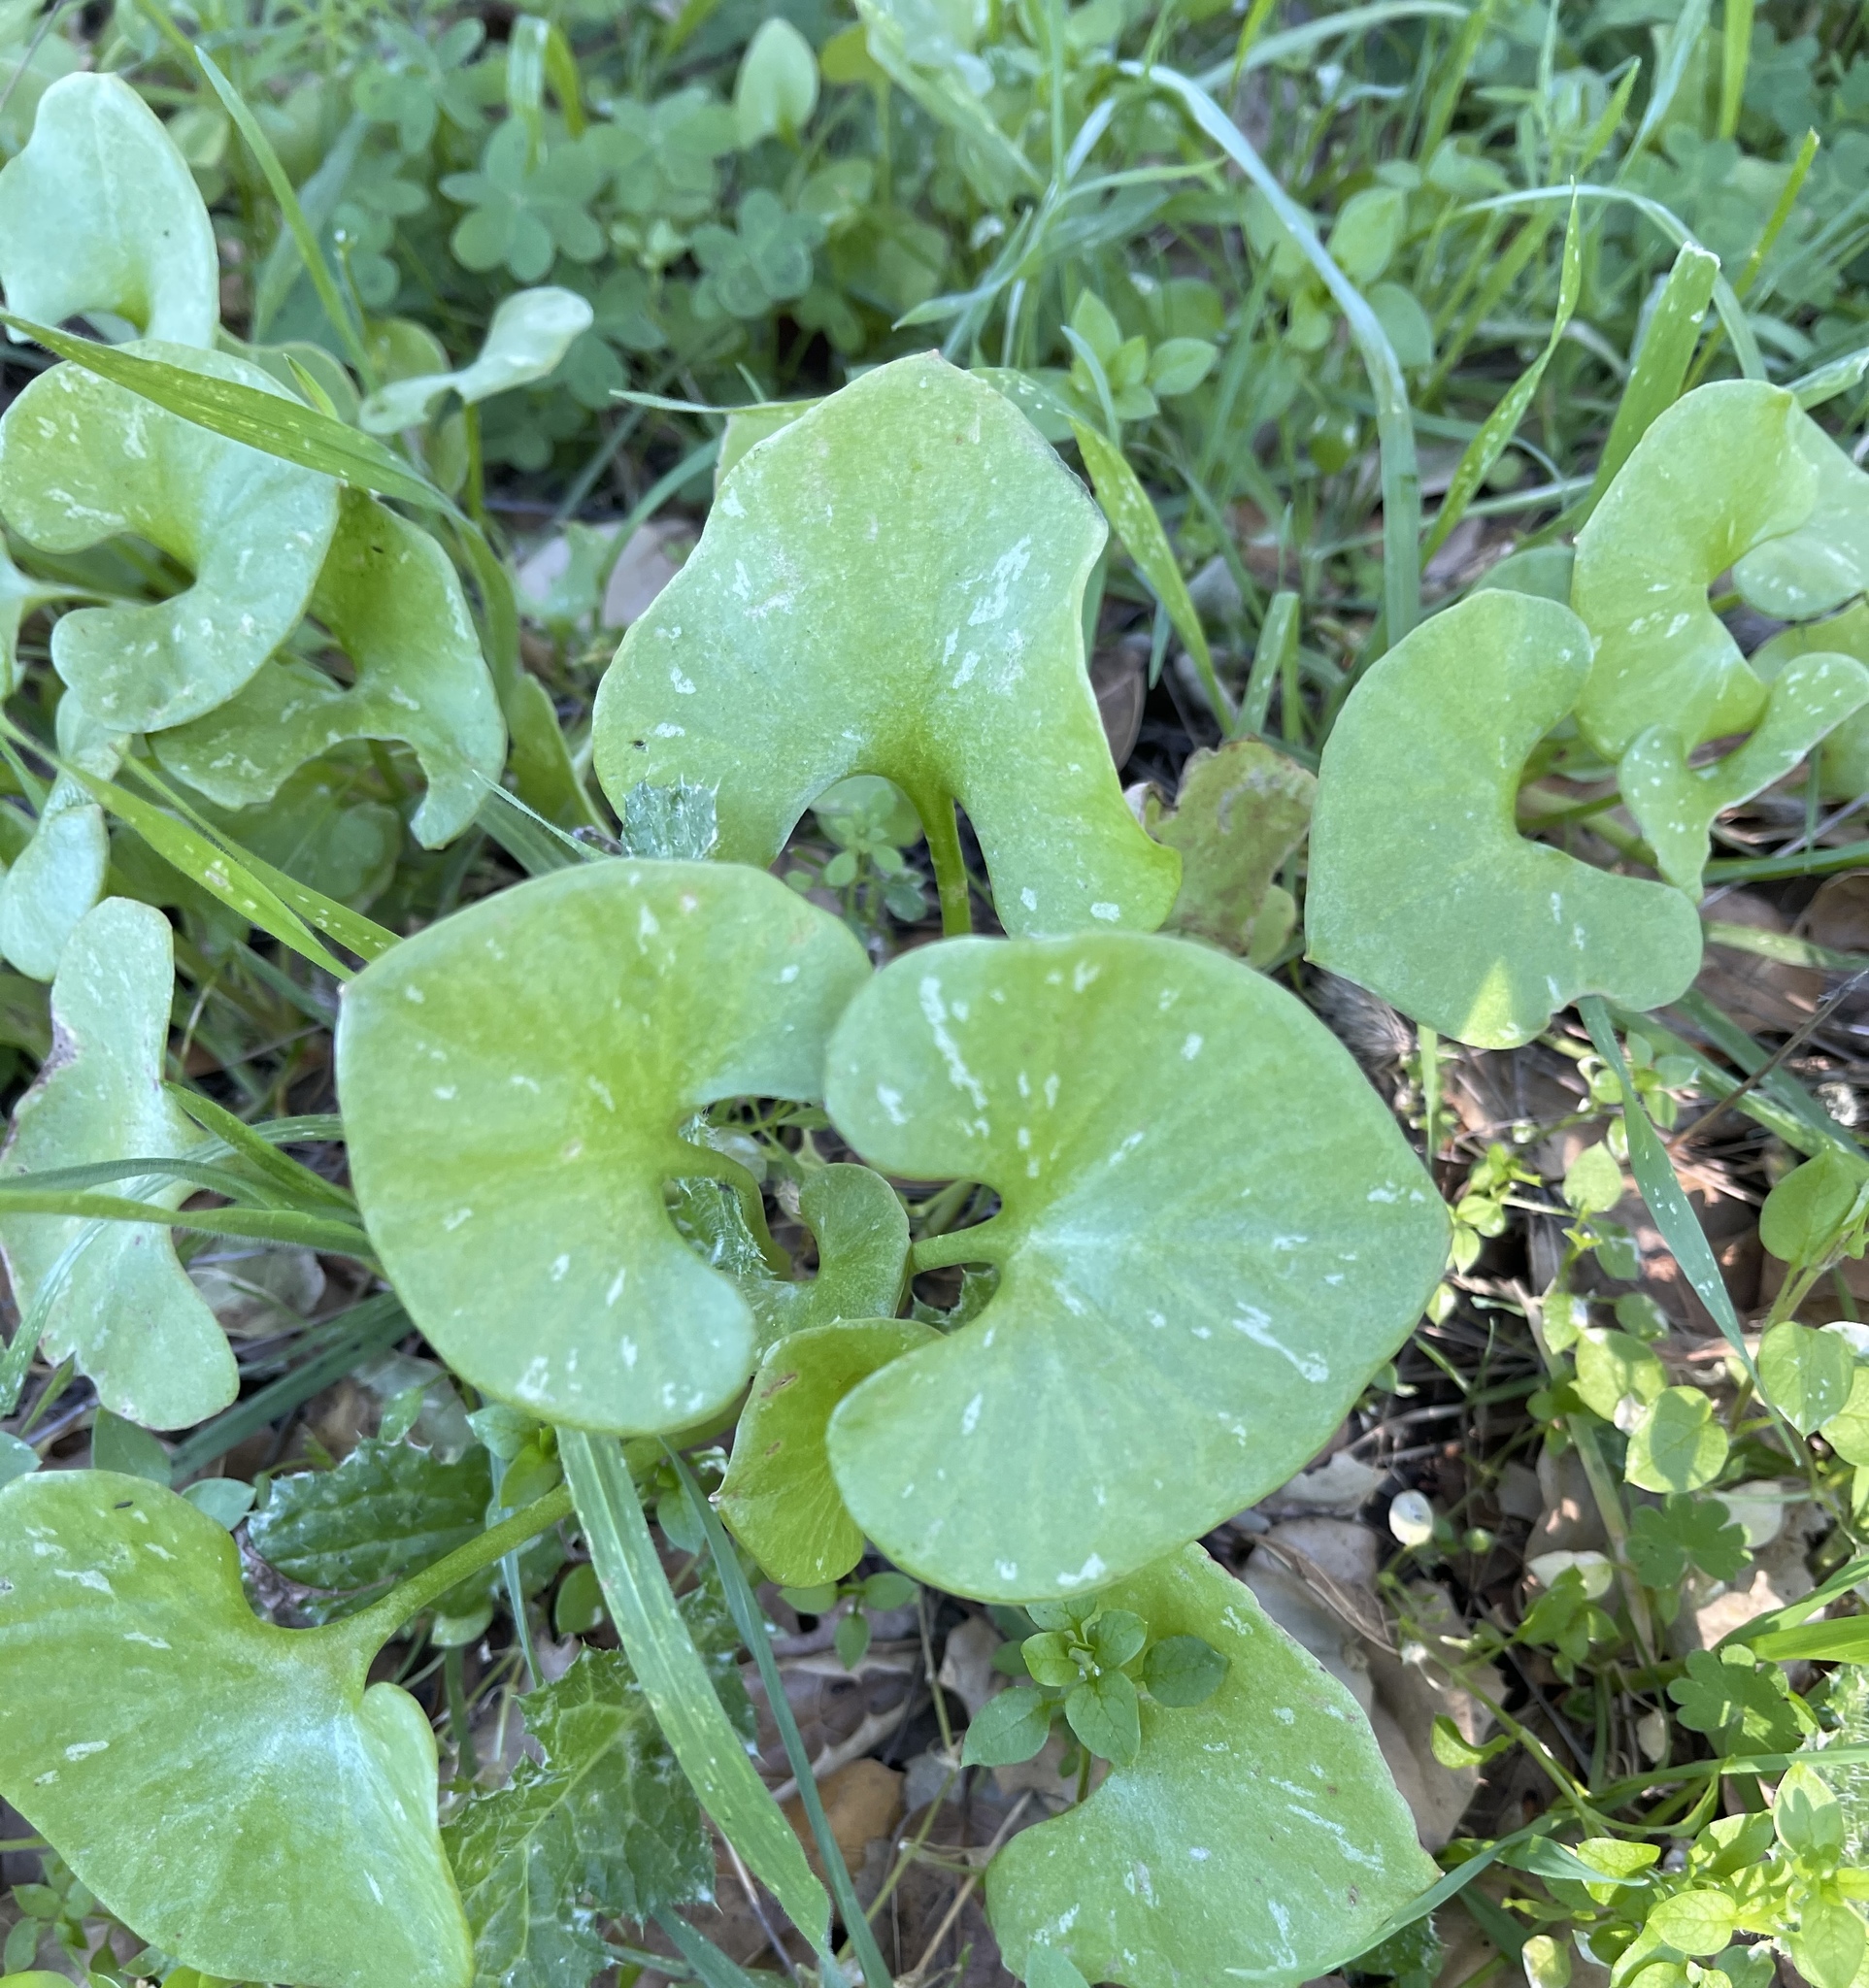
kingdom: Plantae
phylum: Tracheophyta
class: Magnoliopsida
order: Caryophyllales
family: Montiaceae
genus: Claytonia
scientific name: Claytonia perfoliata
